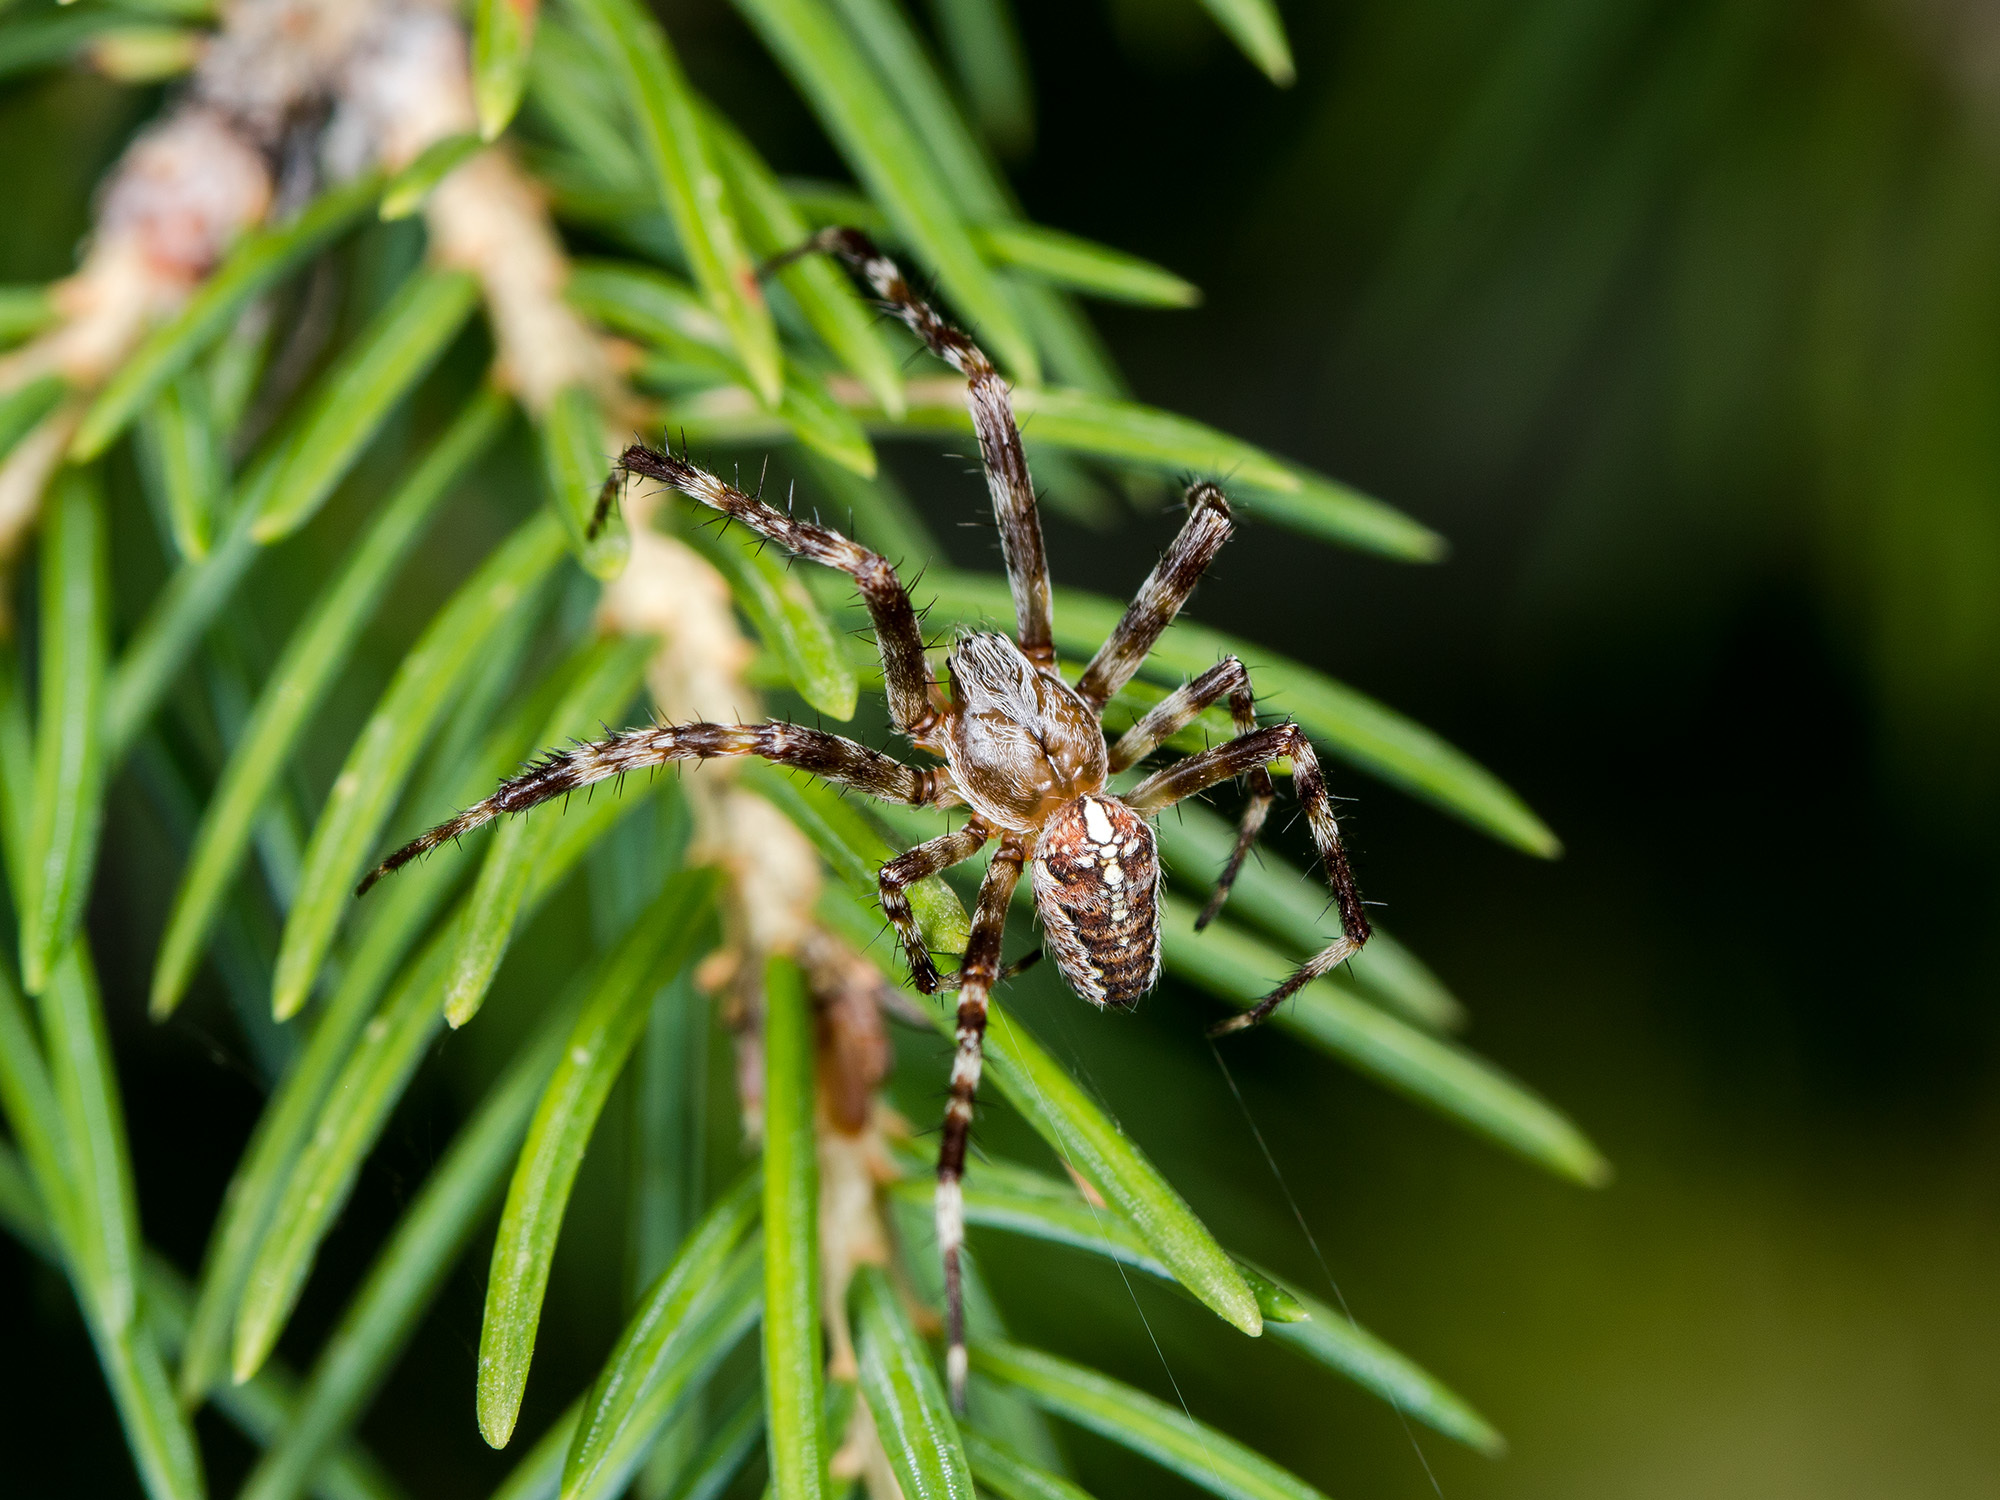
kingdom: Animalia
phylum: Arthropoda
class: Arachnida
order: Araneae
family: Araneidae
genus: Araneus
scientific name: Araneus diadematus
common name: Cross orbweaver
